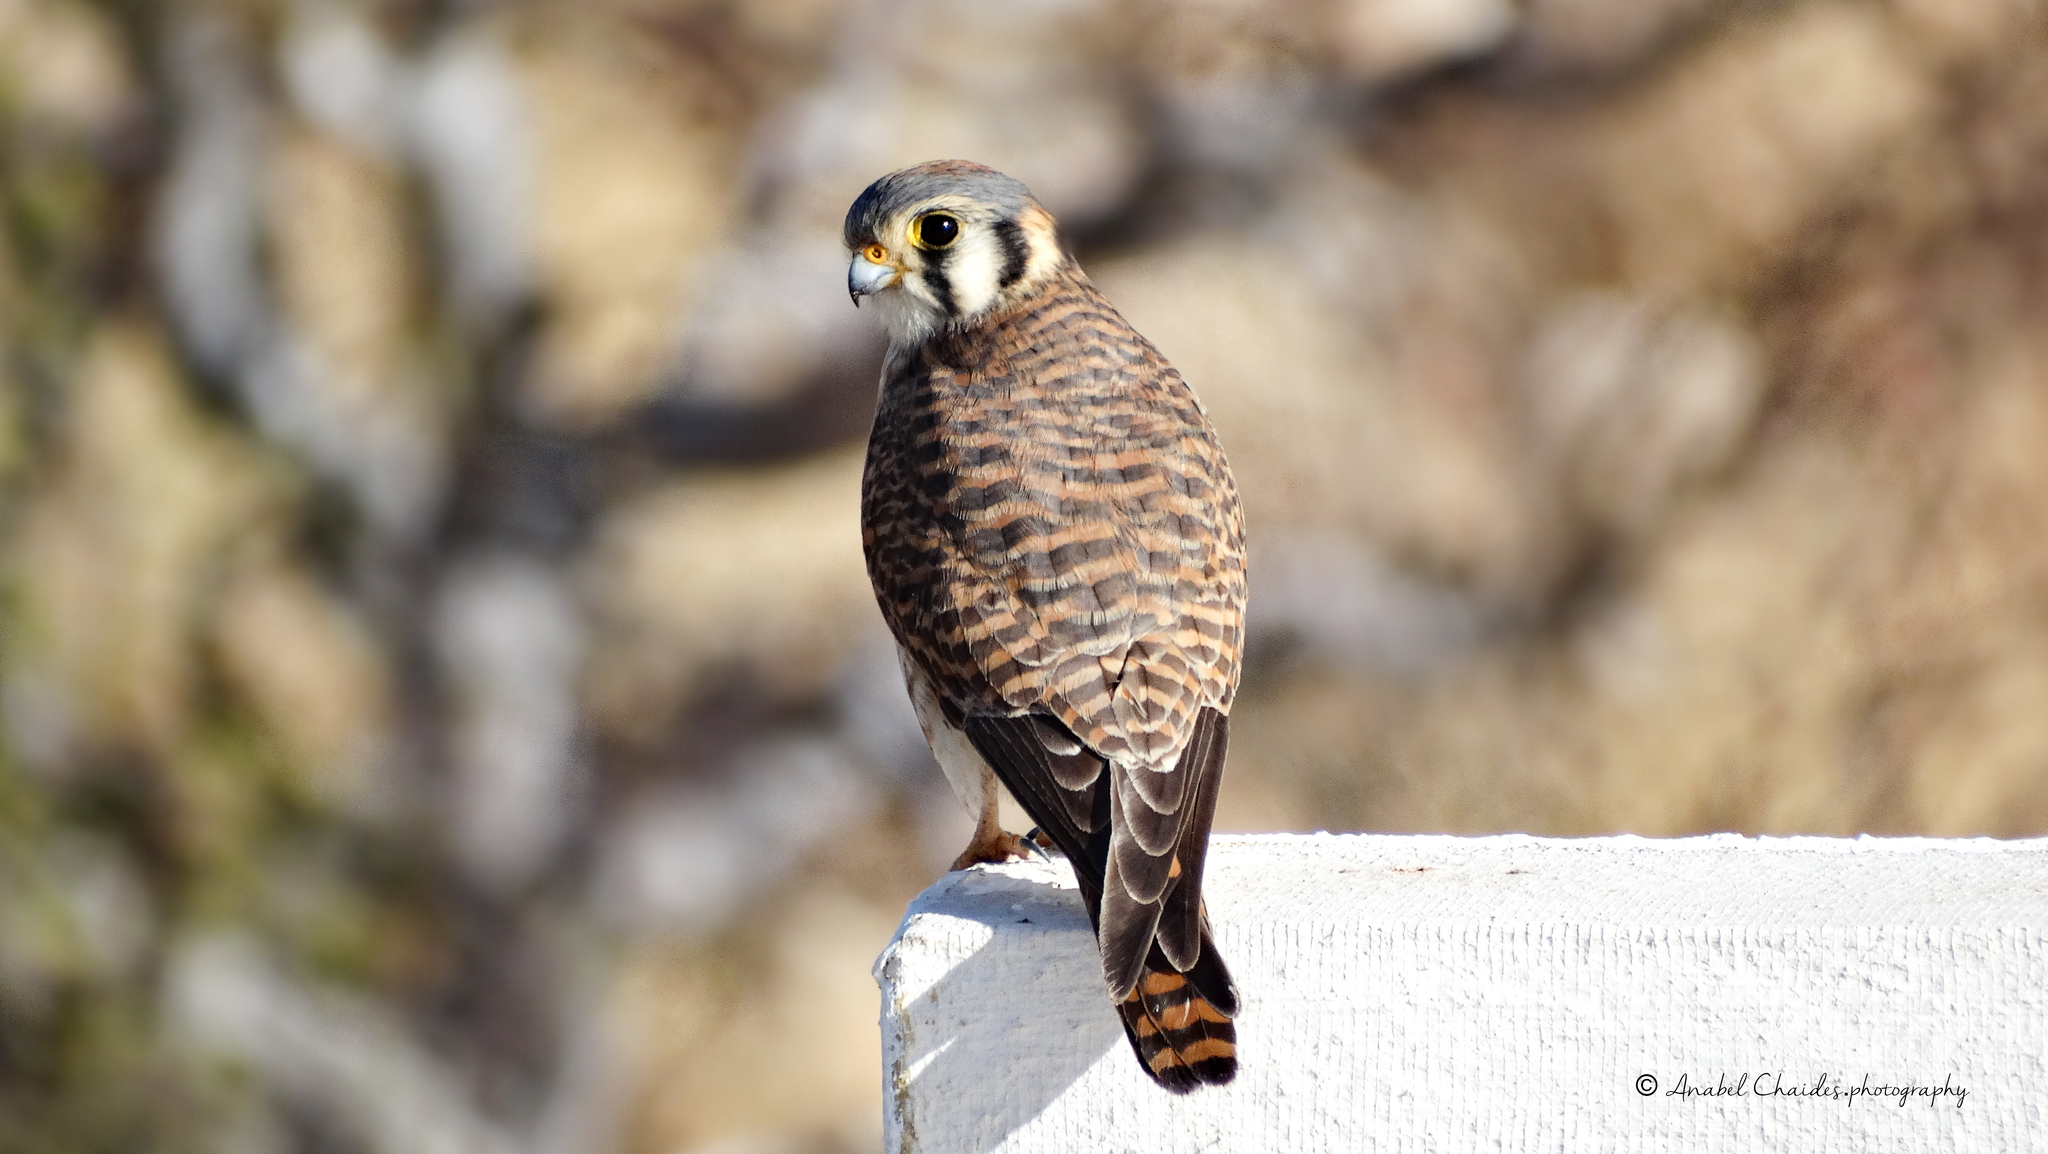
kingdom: Animalia
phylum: Chordata
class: Aves
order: Falconiformes
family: Falconidae
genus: Falco
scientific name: Falco sparverius
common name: American kestrel
